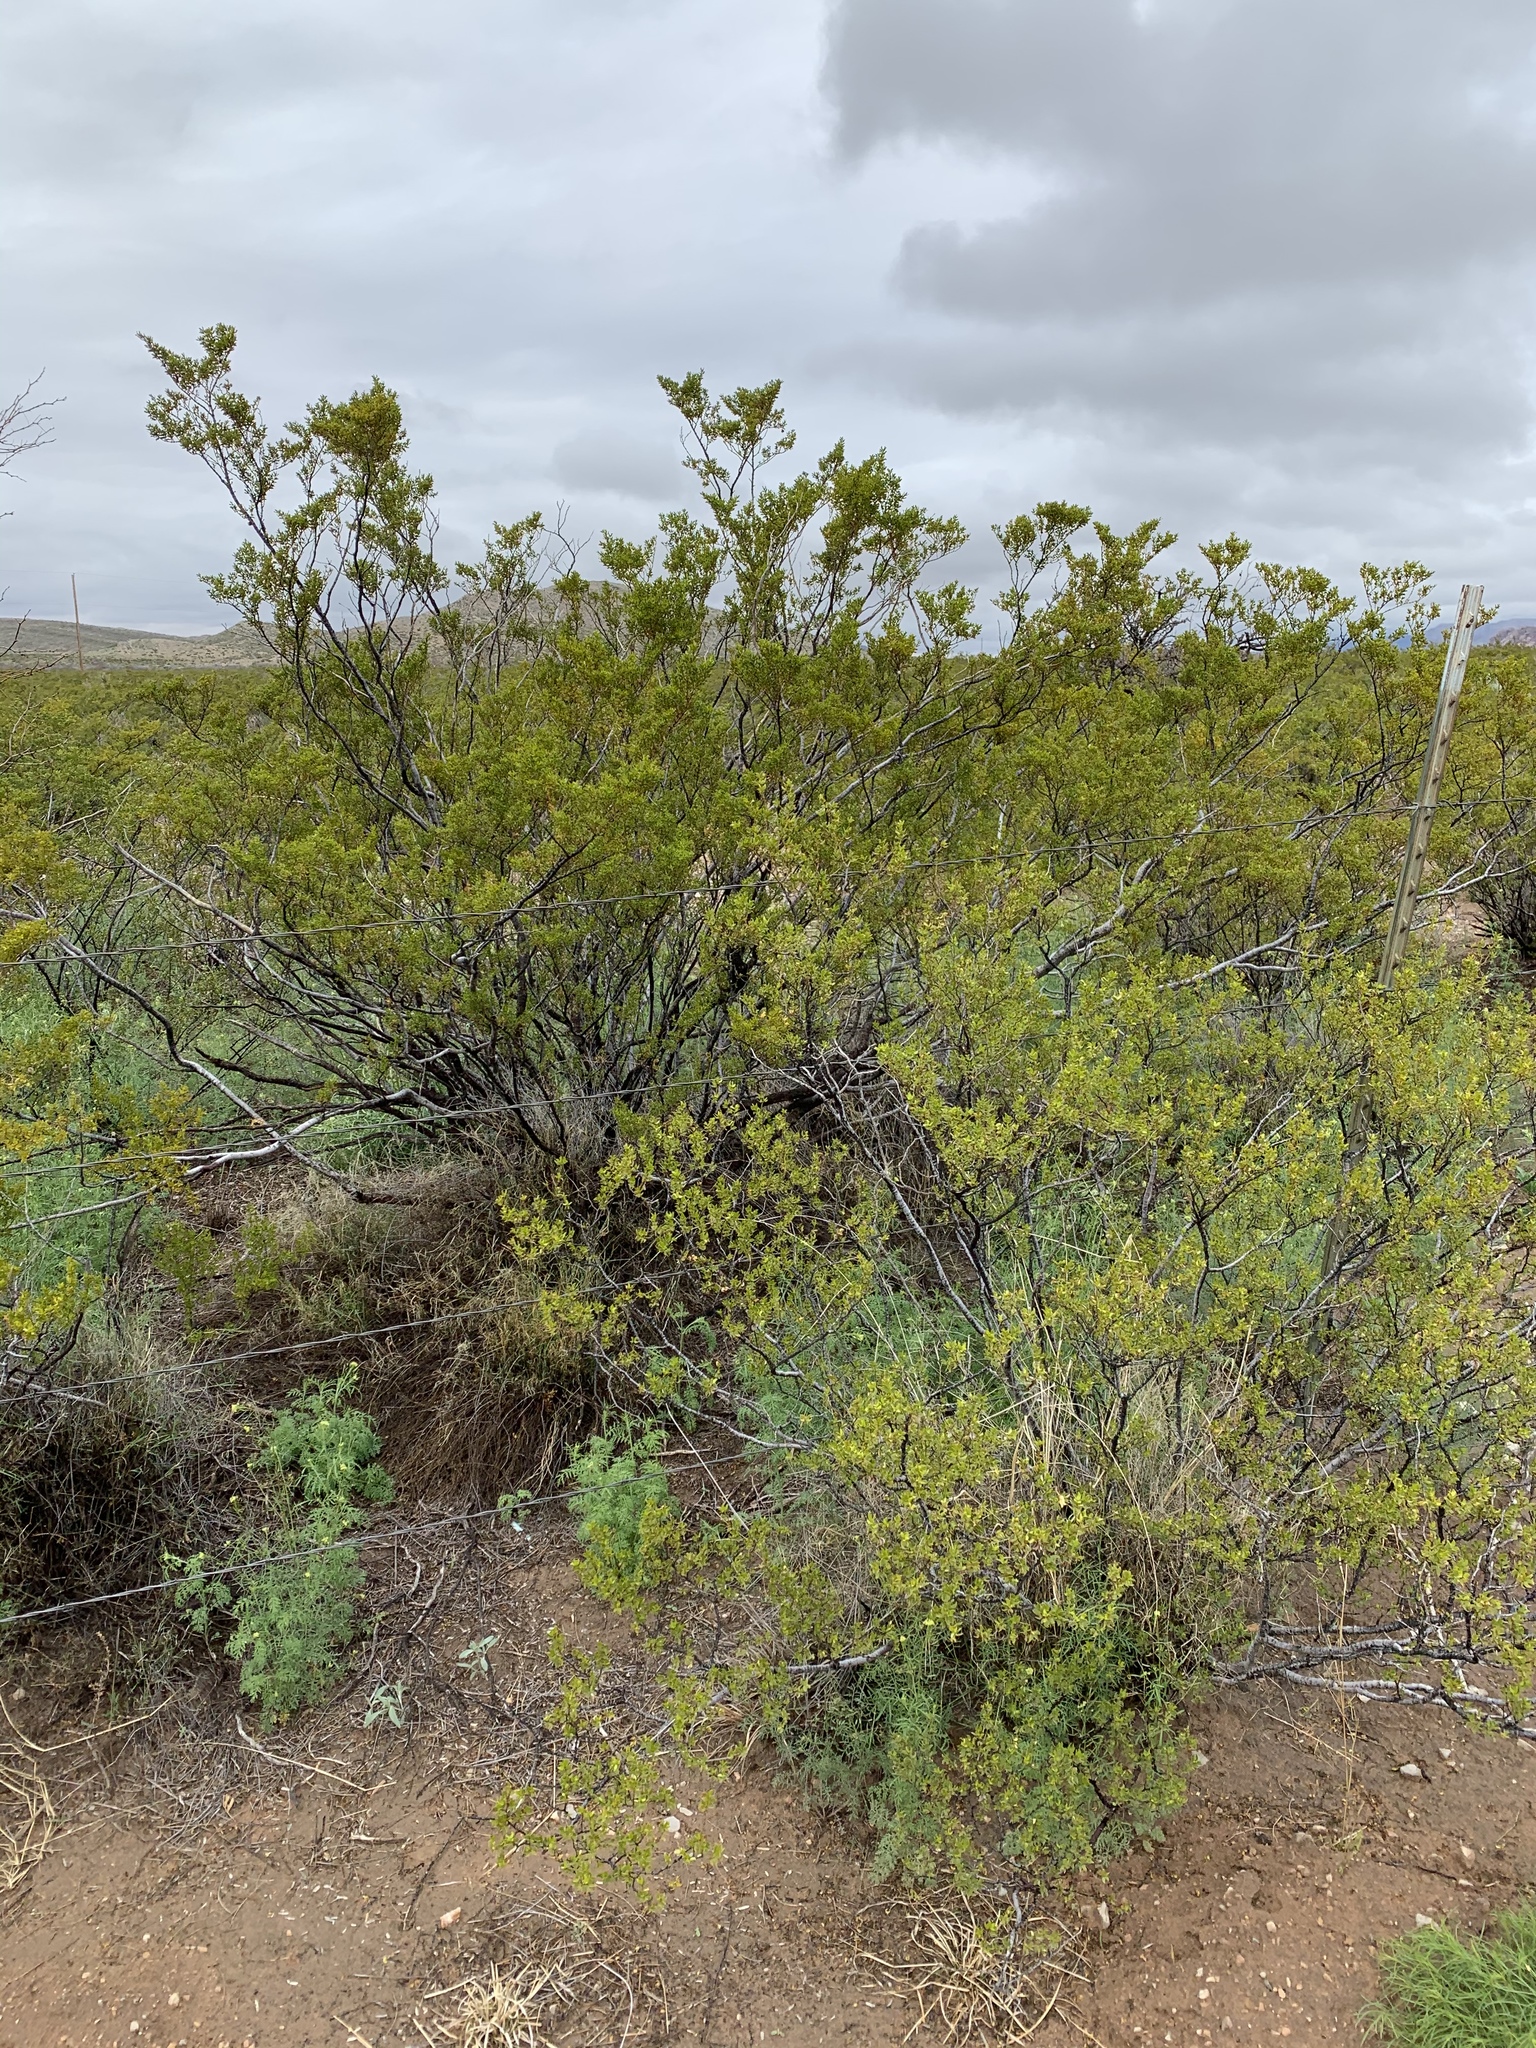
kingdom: Plantae
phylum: Tracheophyta
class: Magnoliopsida
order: Zygophyllales
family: Zygophyllaceae
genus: Larrea
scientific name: Larrea tridentata
